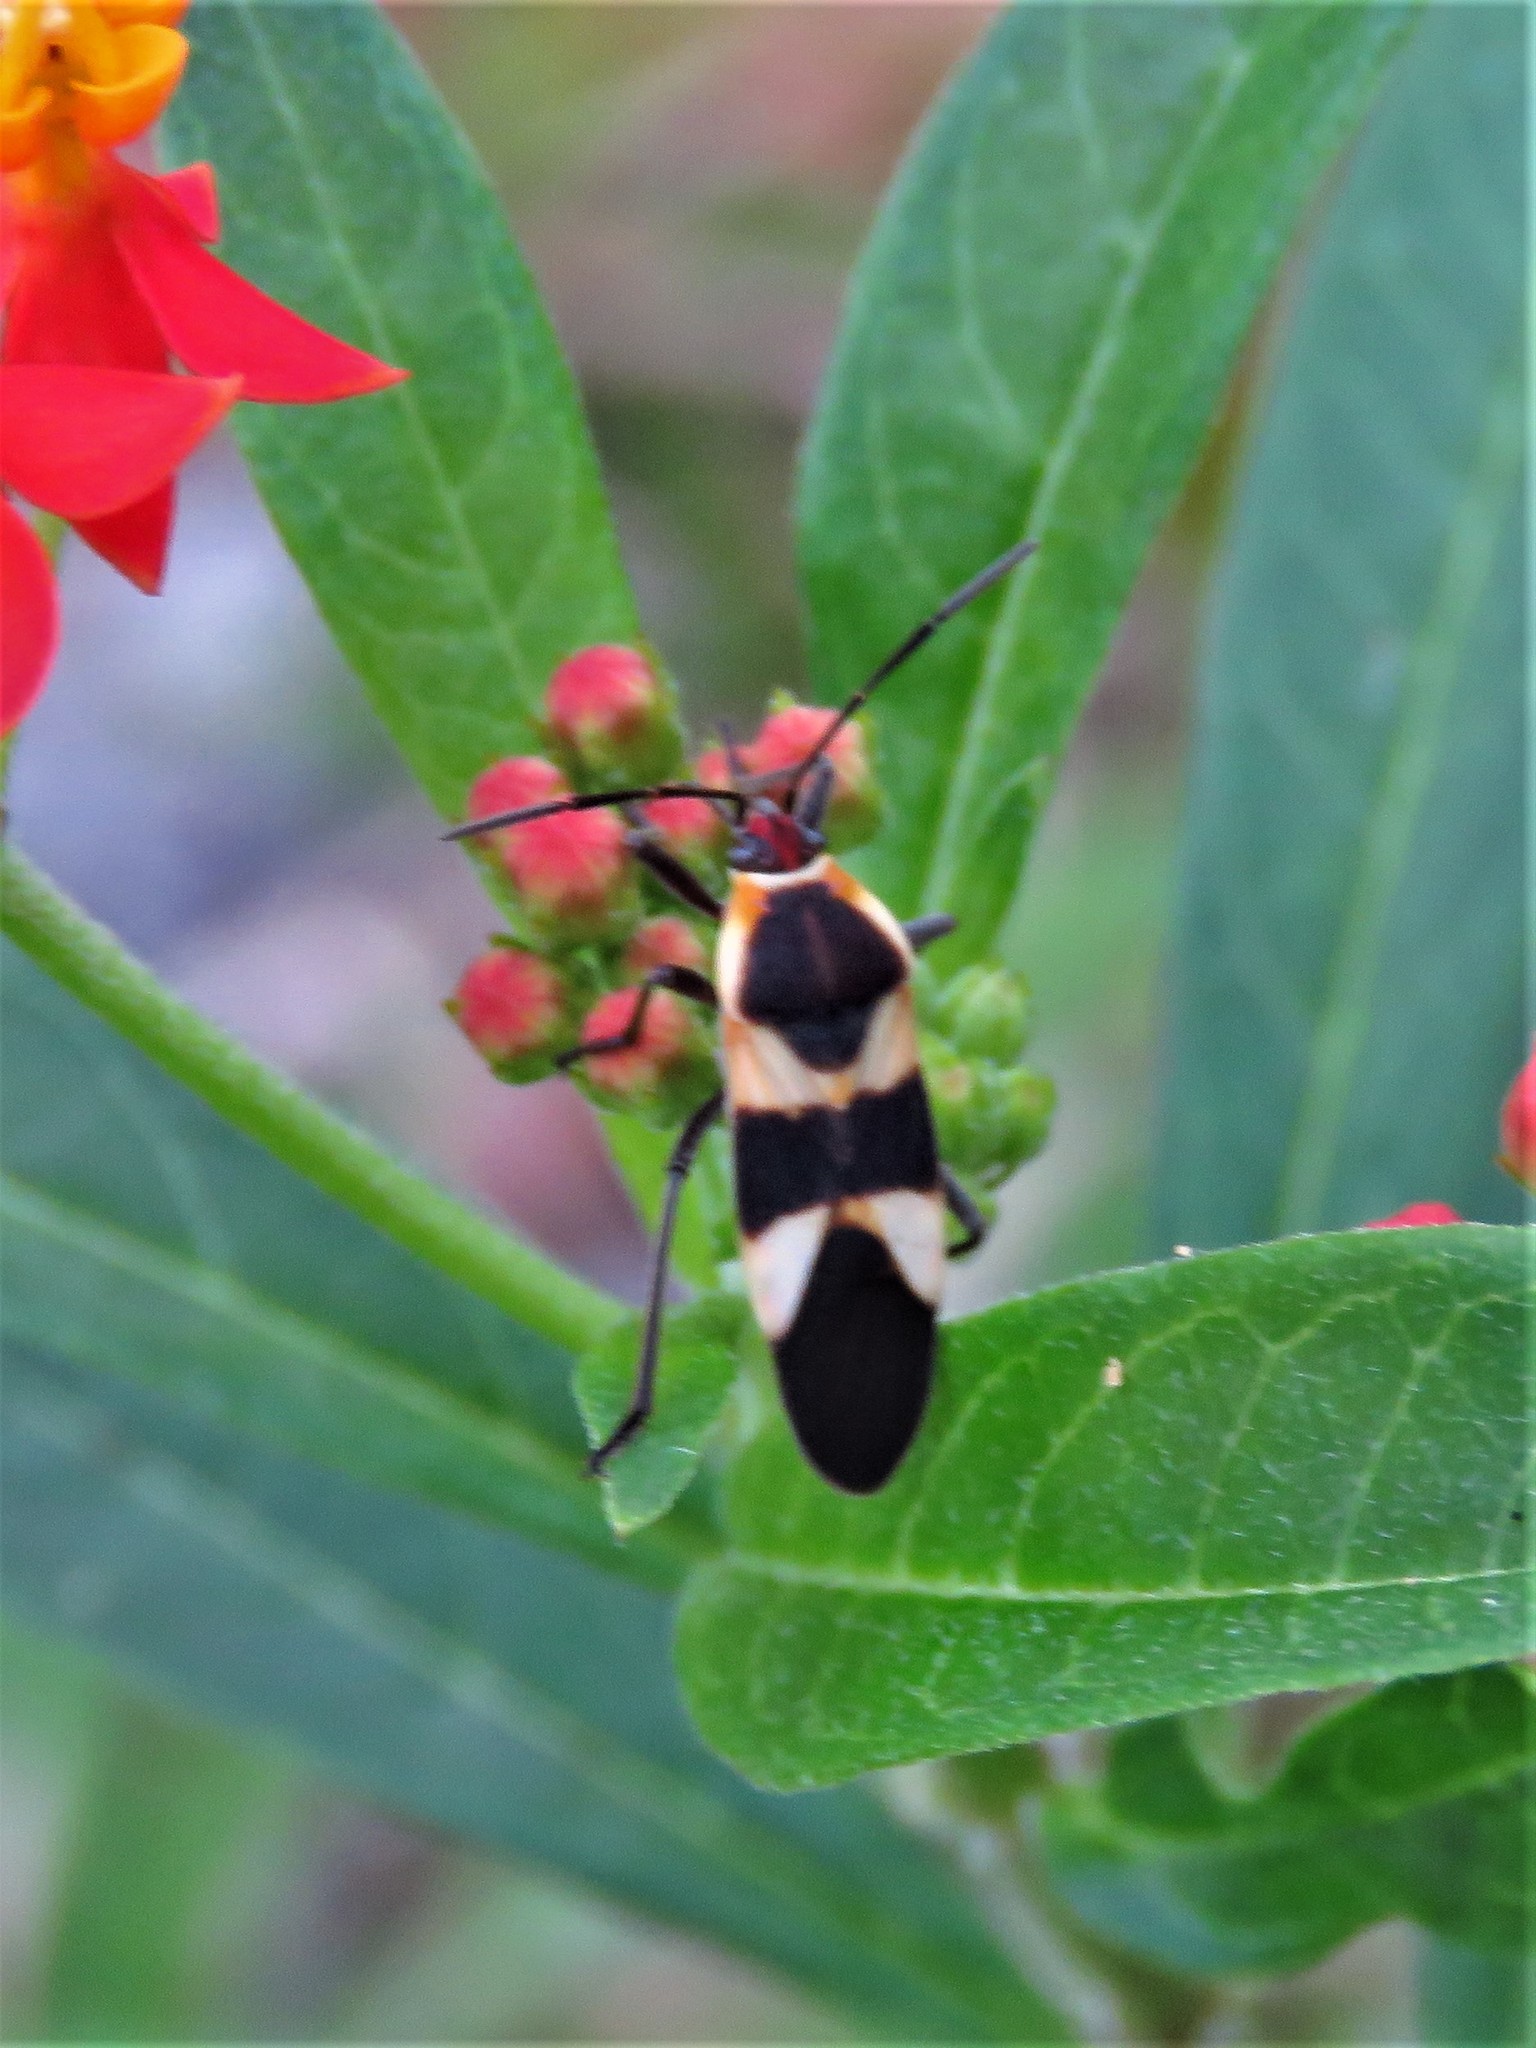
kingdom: Animalia
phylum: Arthropoda
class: Insecta
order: Hemiptera
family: Lygaeidae
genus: Oncopeltus
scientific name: Oncopeltus sandarachatus
